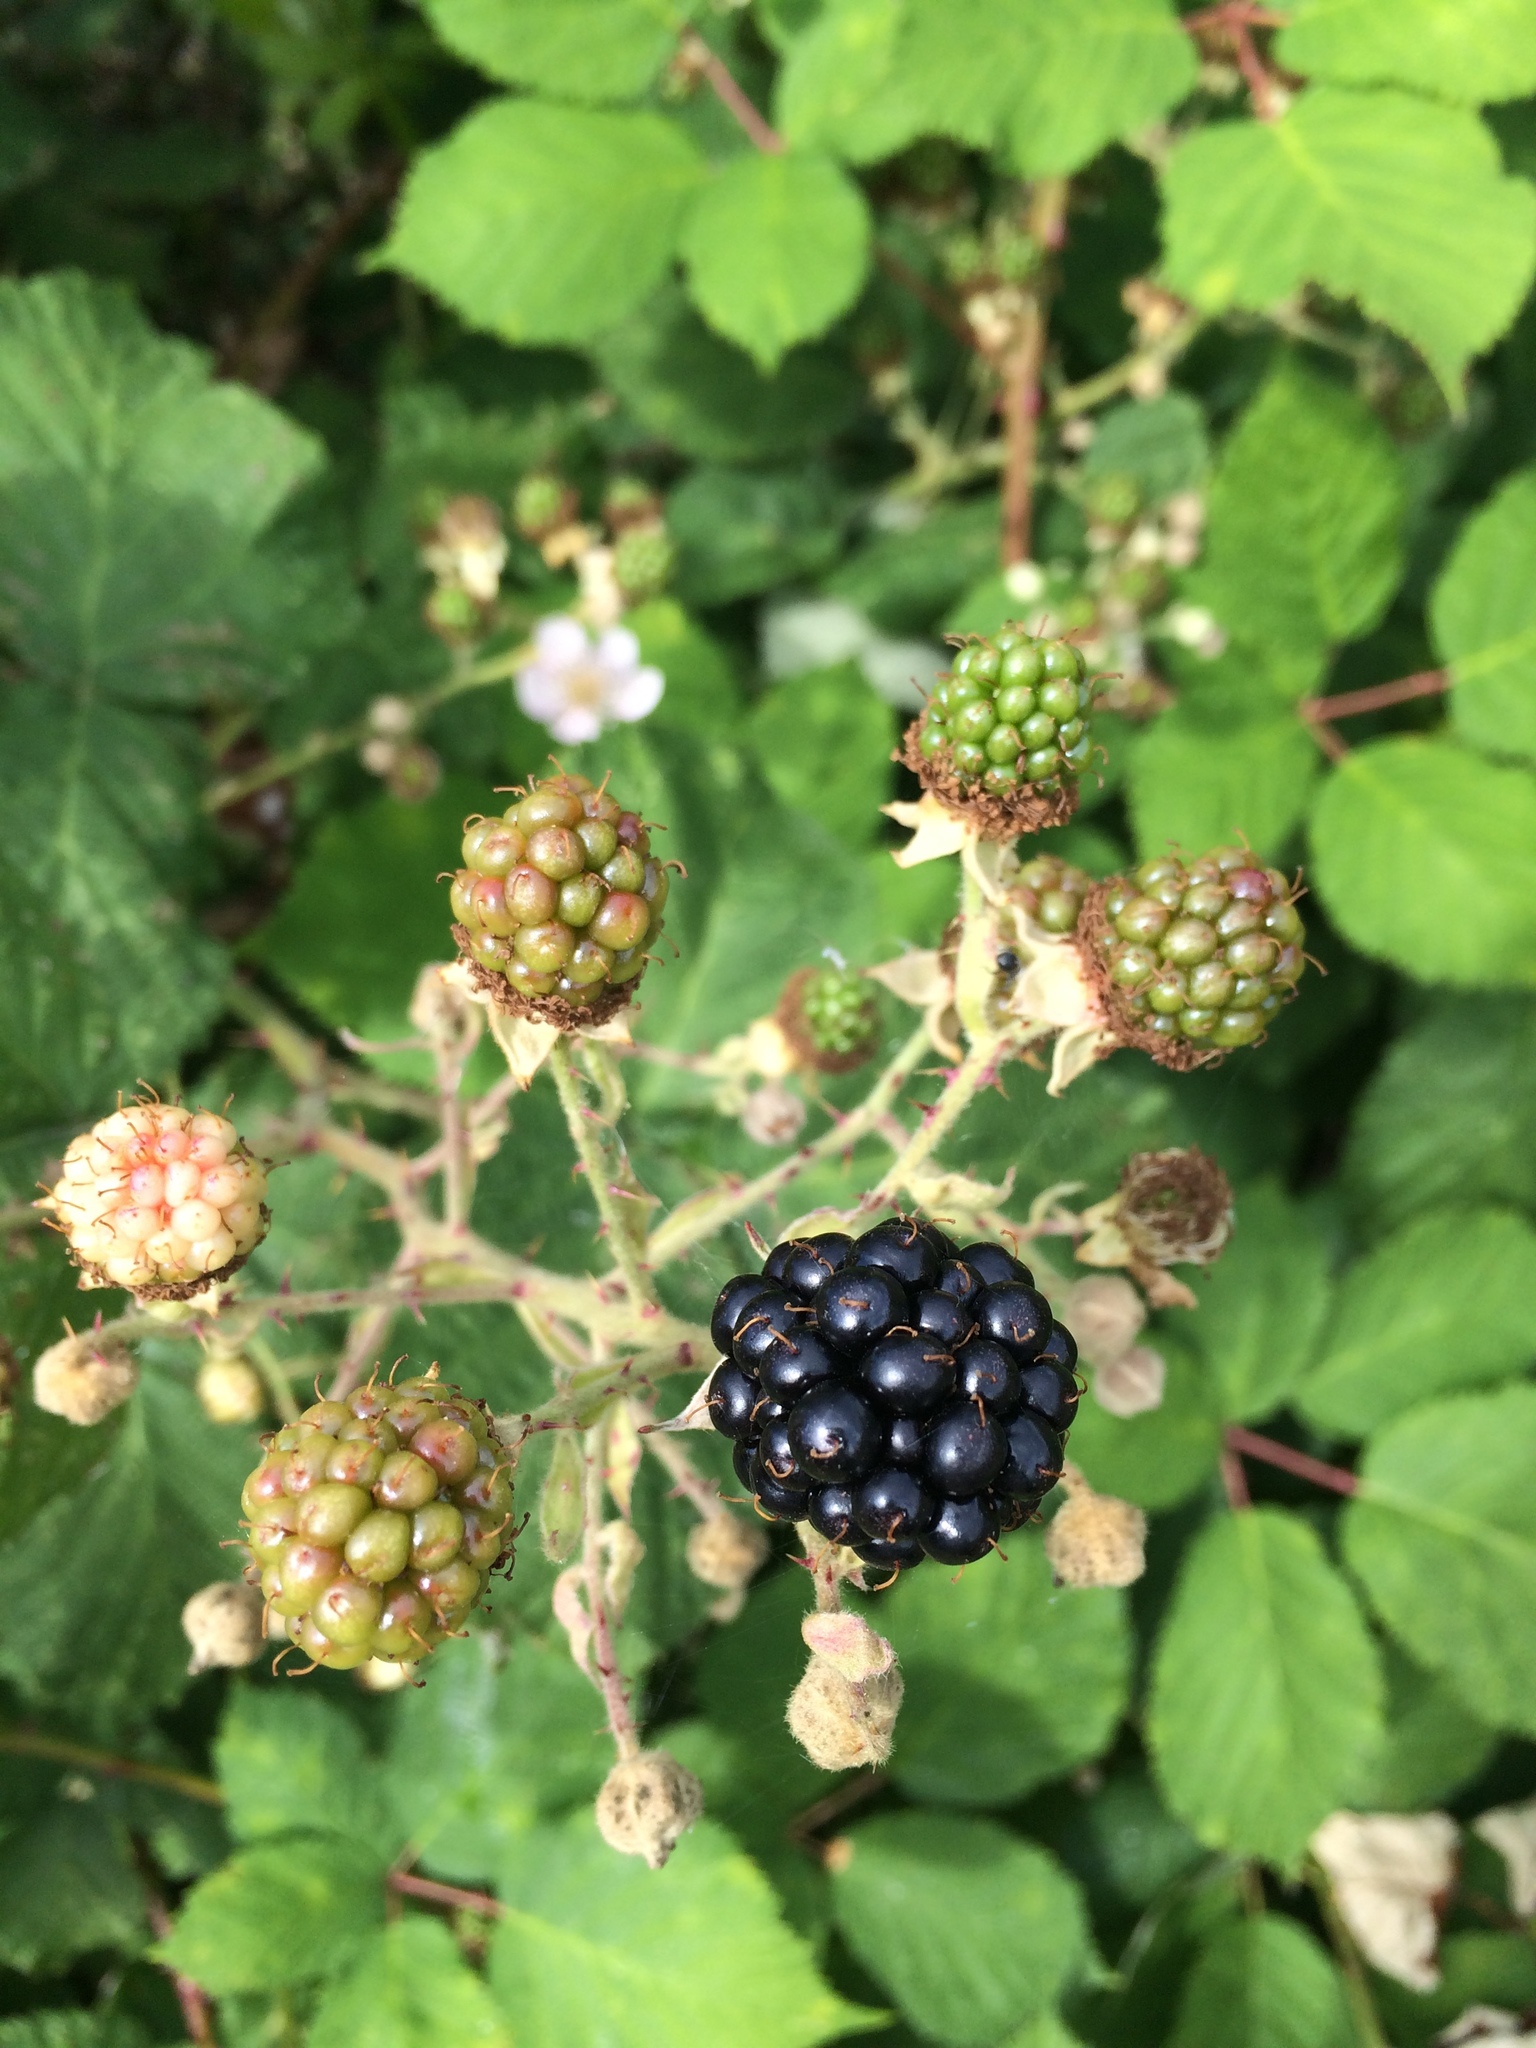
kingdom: Plantae
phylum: Tracheophyta
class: Magnoliopsida
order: Rosales
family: Rosaceae
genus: Rubus
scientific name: Rubus armeniacus
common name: Himalayan blackberry
